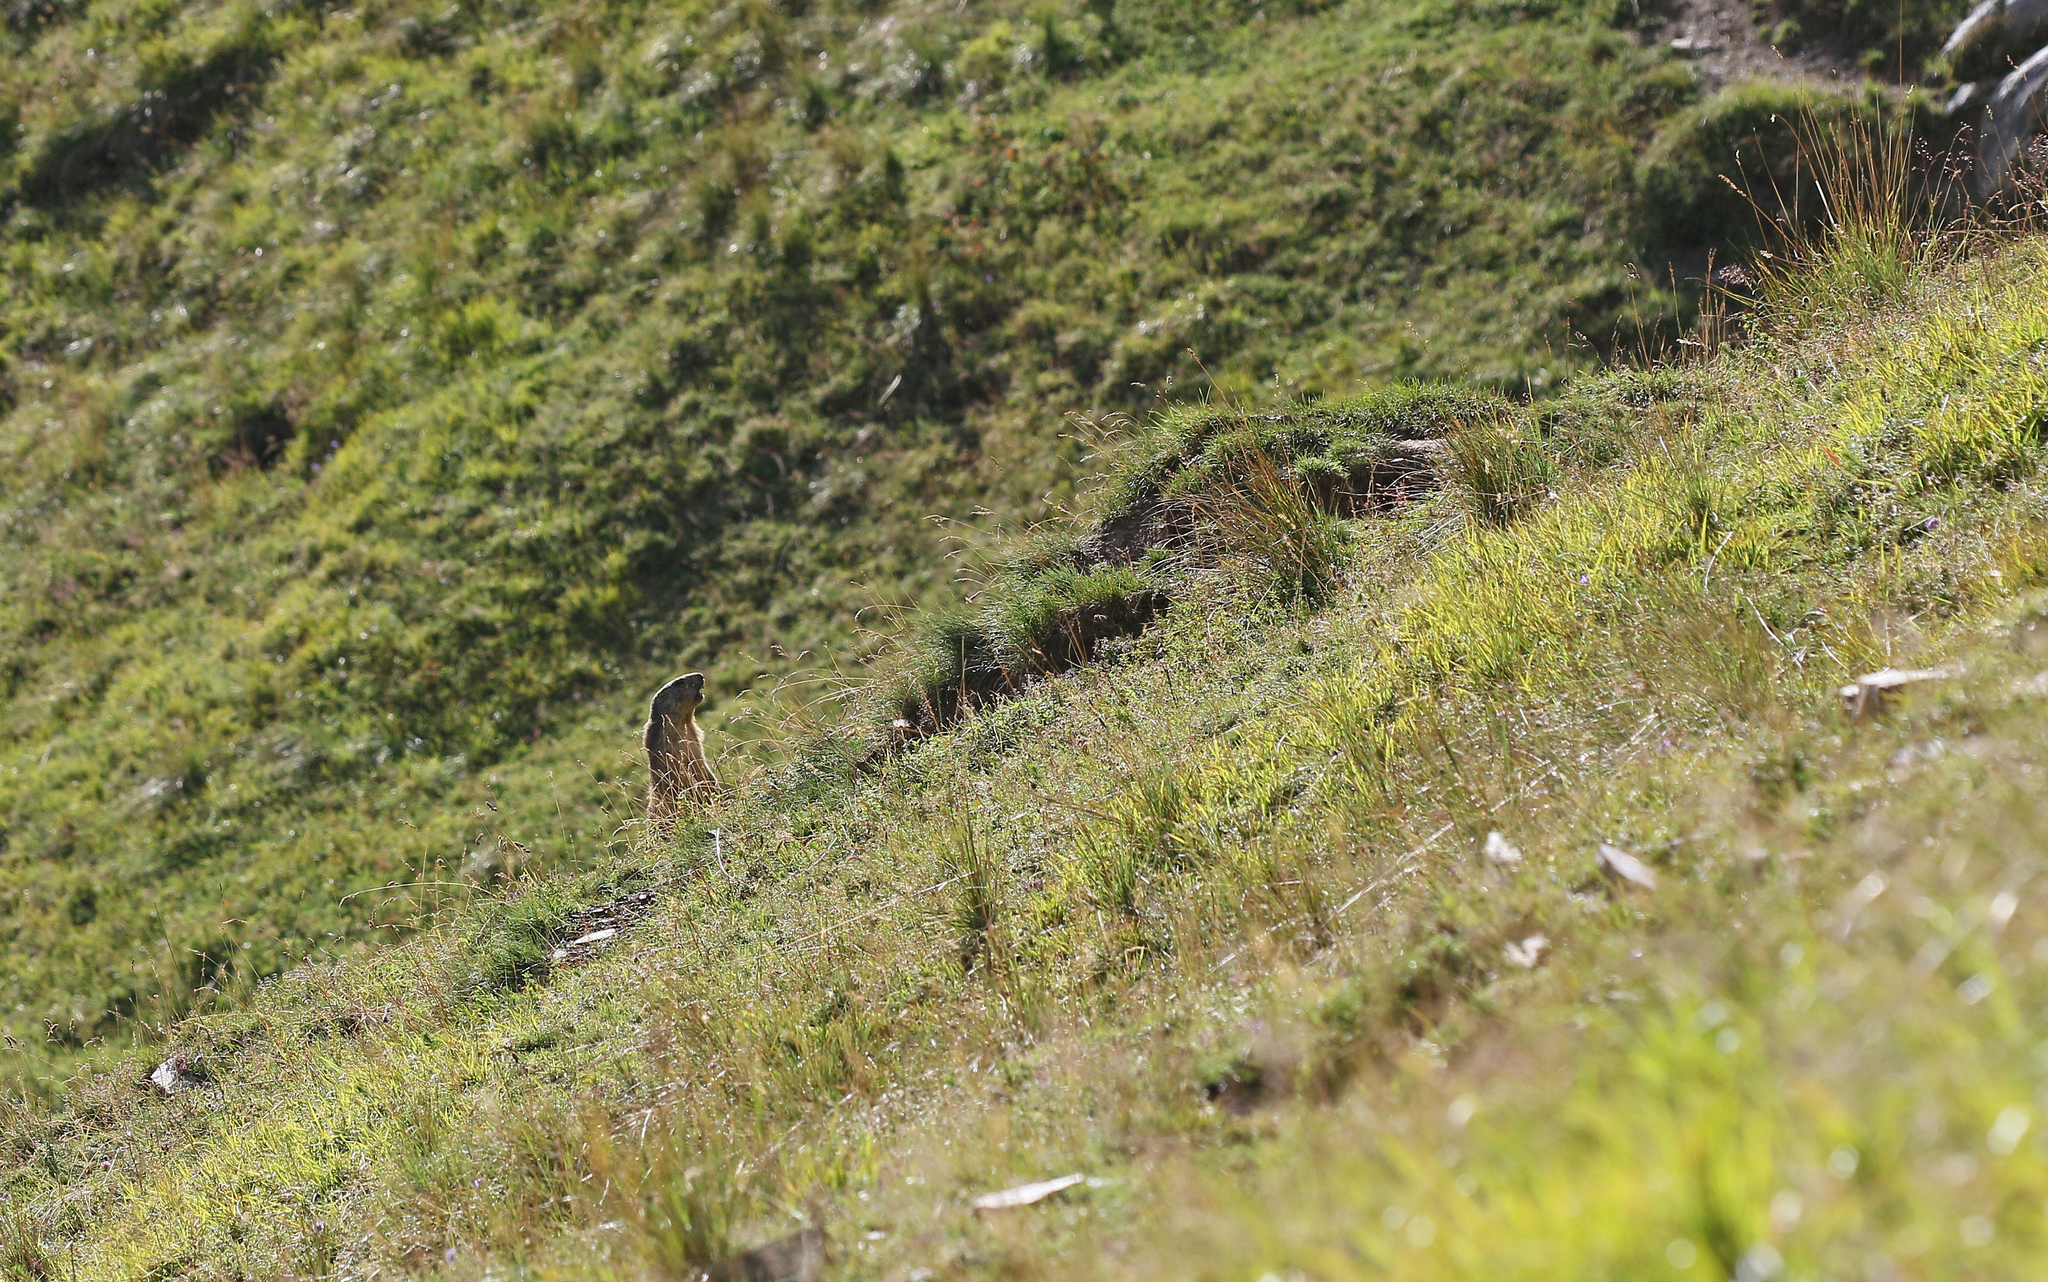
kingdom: Animalia
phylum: Chordata
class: Mammalia
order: Rodentia
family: Sciuridae
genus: Marmota
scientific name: Marmota marmota
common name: Alpine marmot
